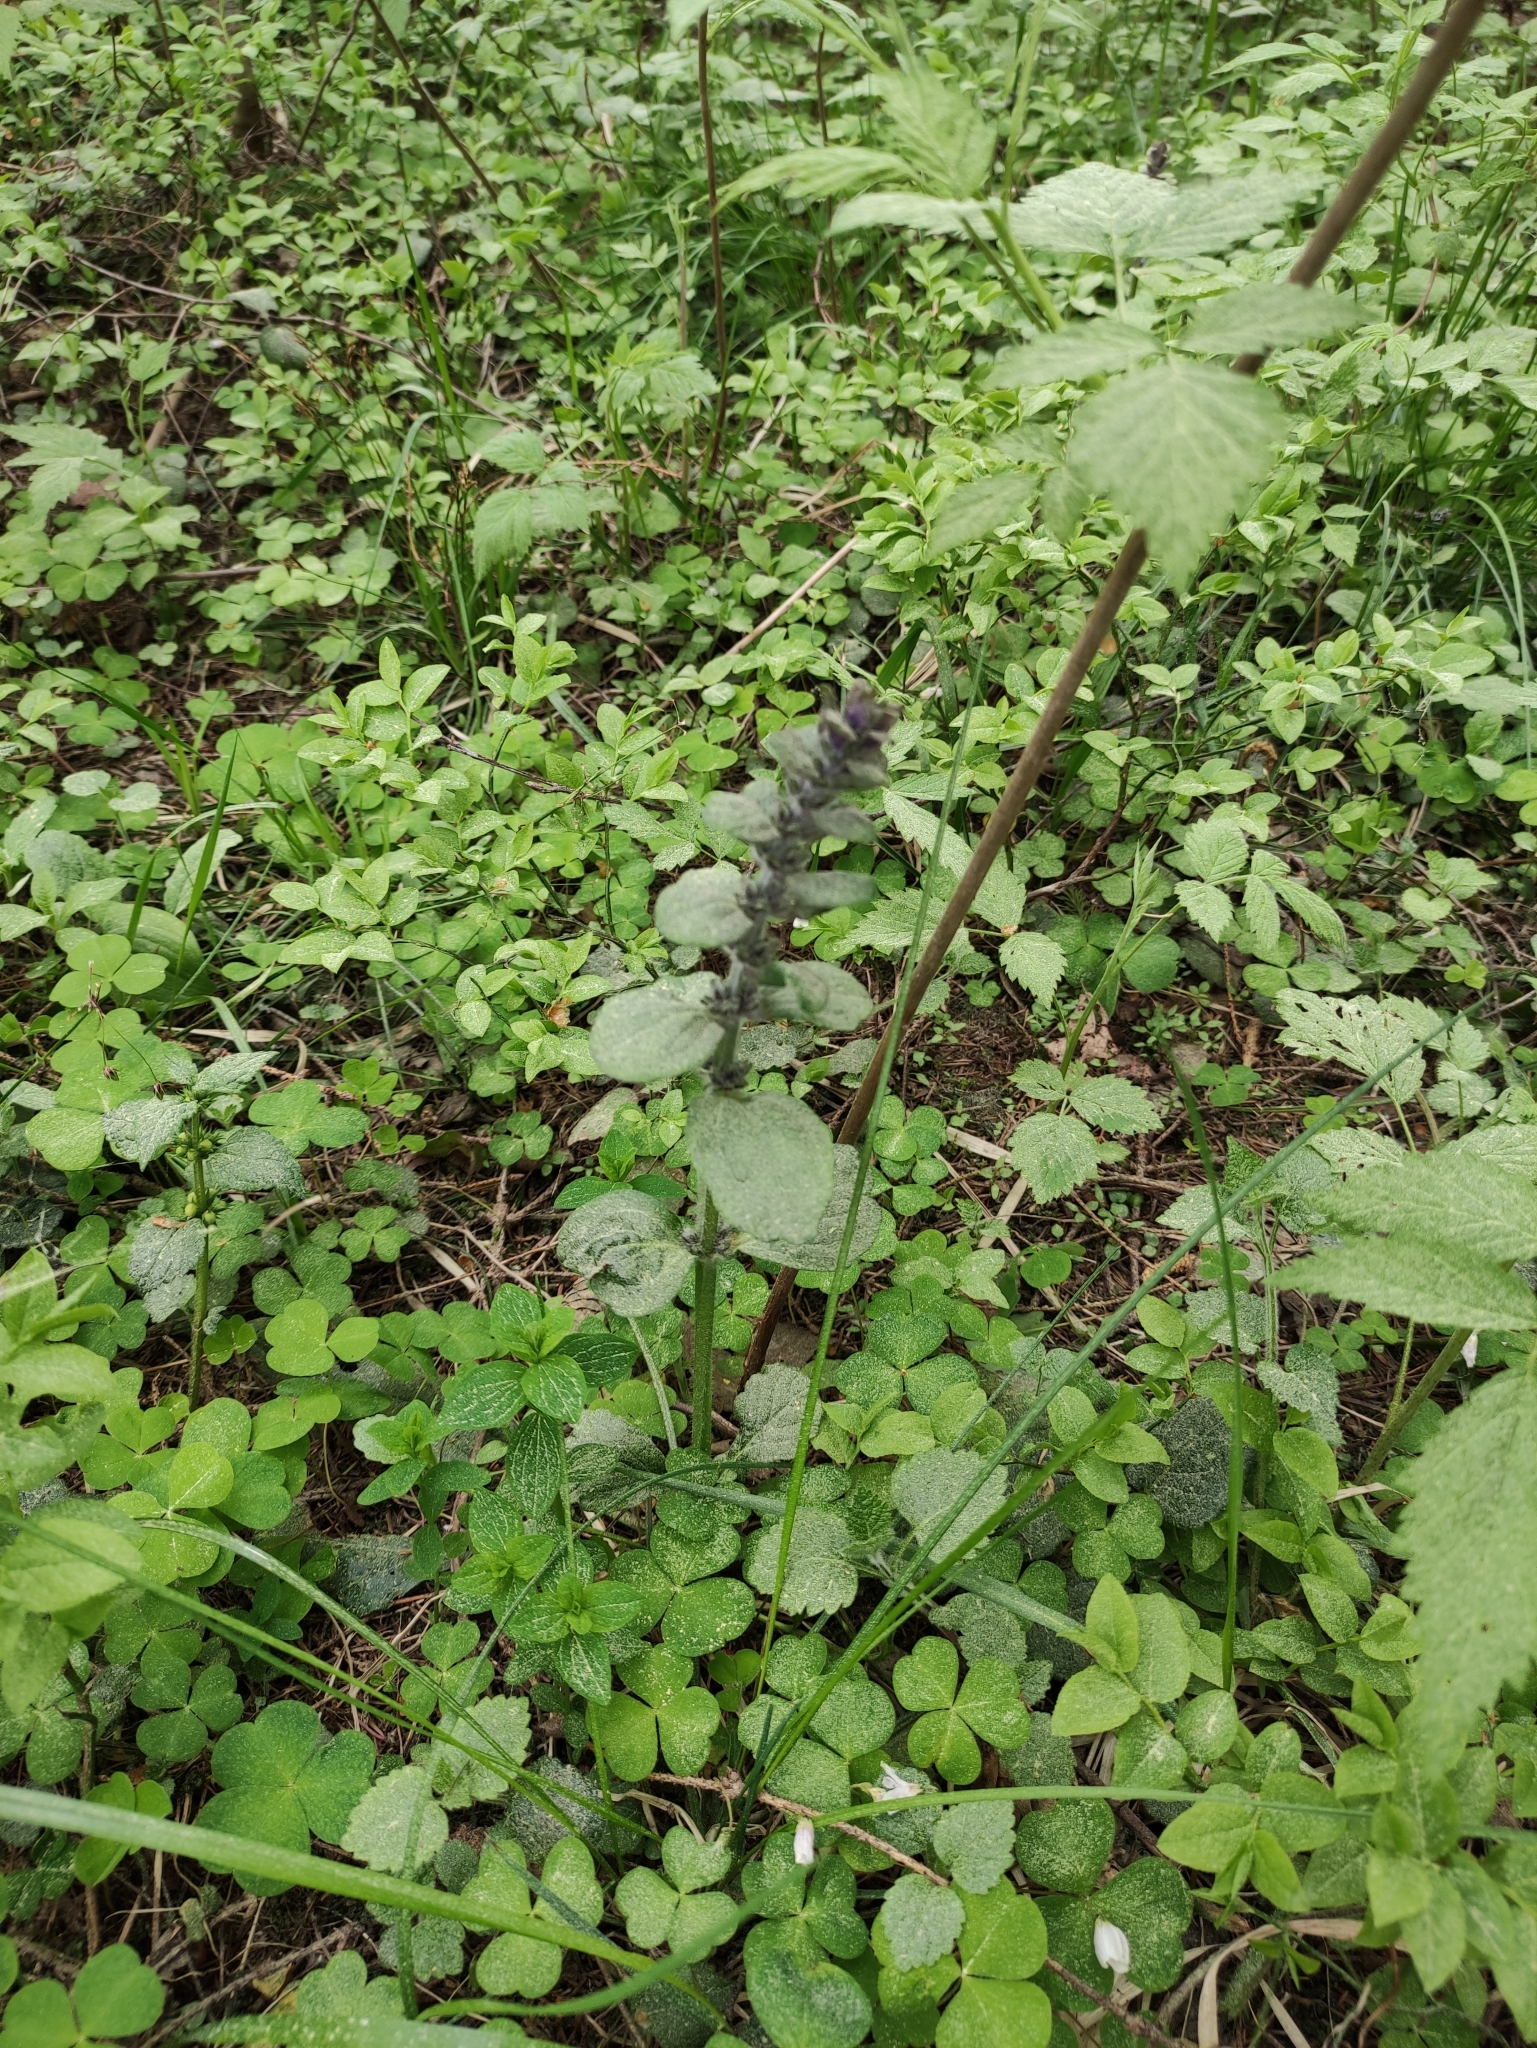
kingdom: Plantae
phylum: Tracheophyta
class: Magnoliopsida
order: Lamiales
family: Lamiaceae
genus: Ajuga
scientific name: Ajuga reptans
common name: Bugle
